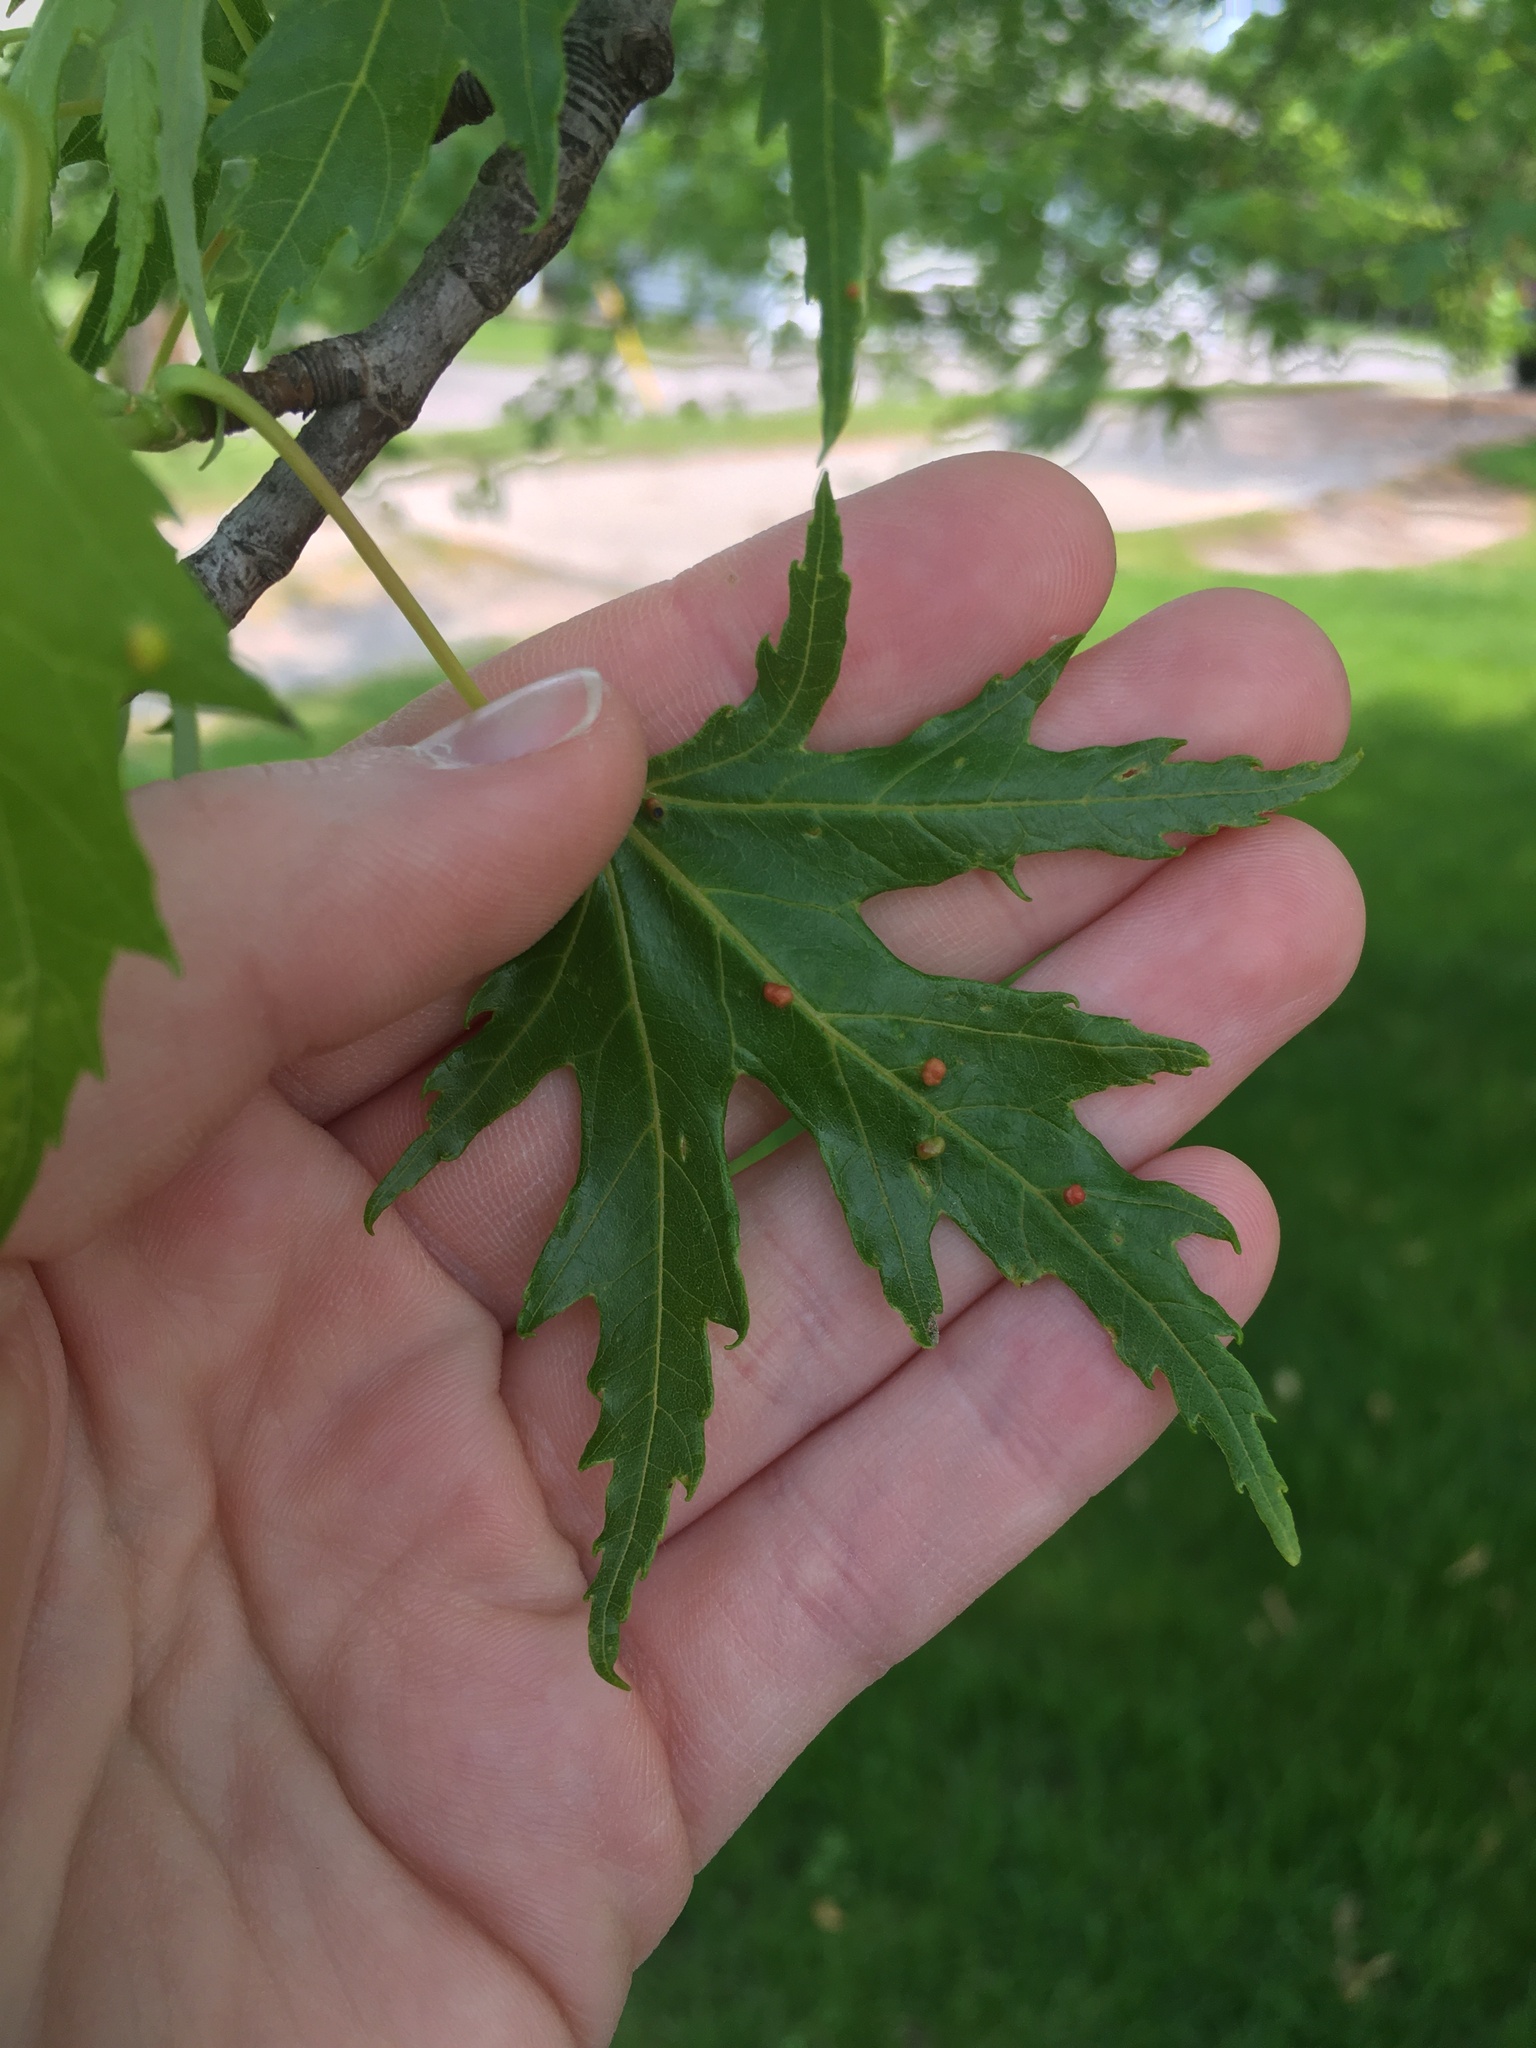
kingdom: Animalia
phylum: Arthropoda
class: Arachnida
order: Trombidiformes
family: Eriophyidae
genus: Vasates
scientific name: Vasates quadripedes
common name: Maple bladder gall mite
